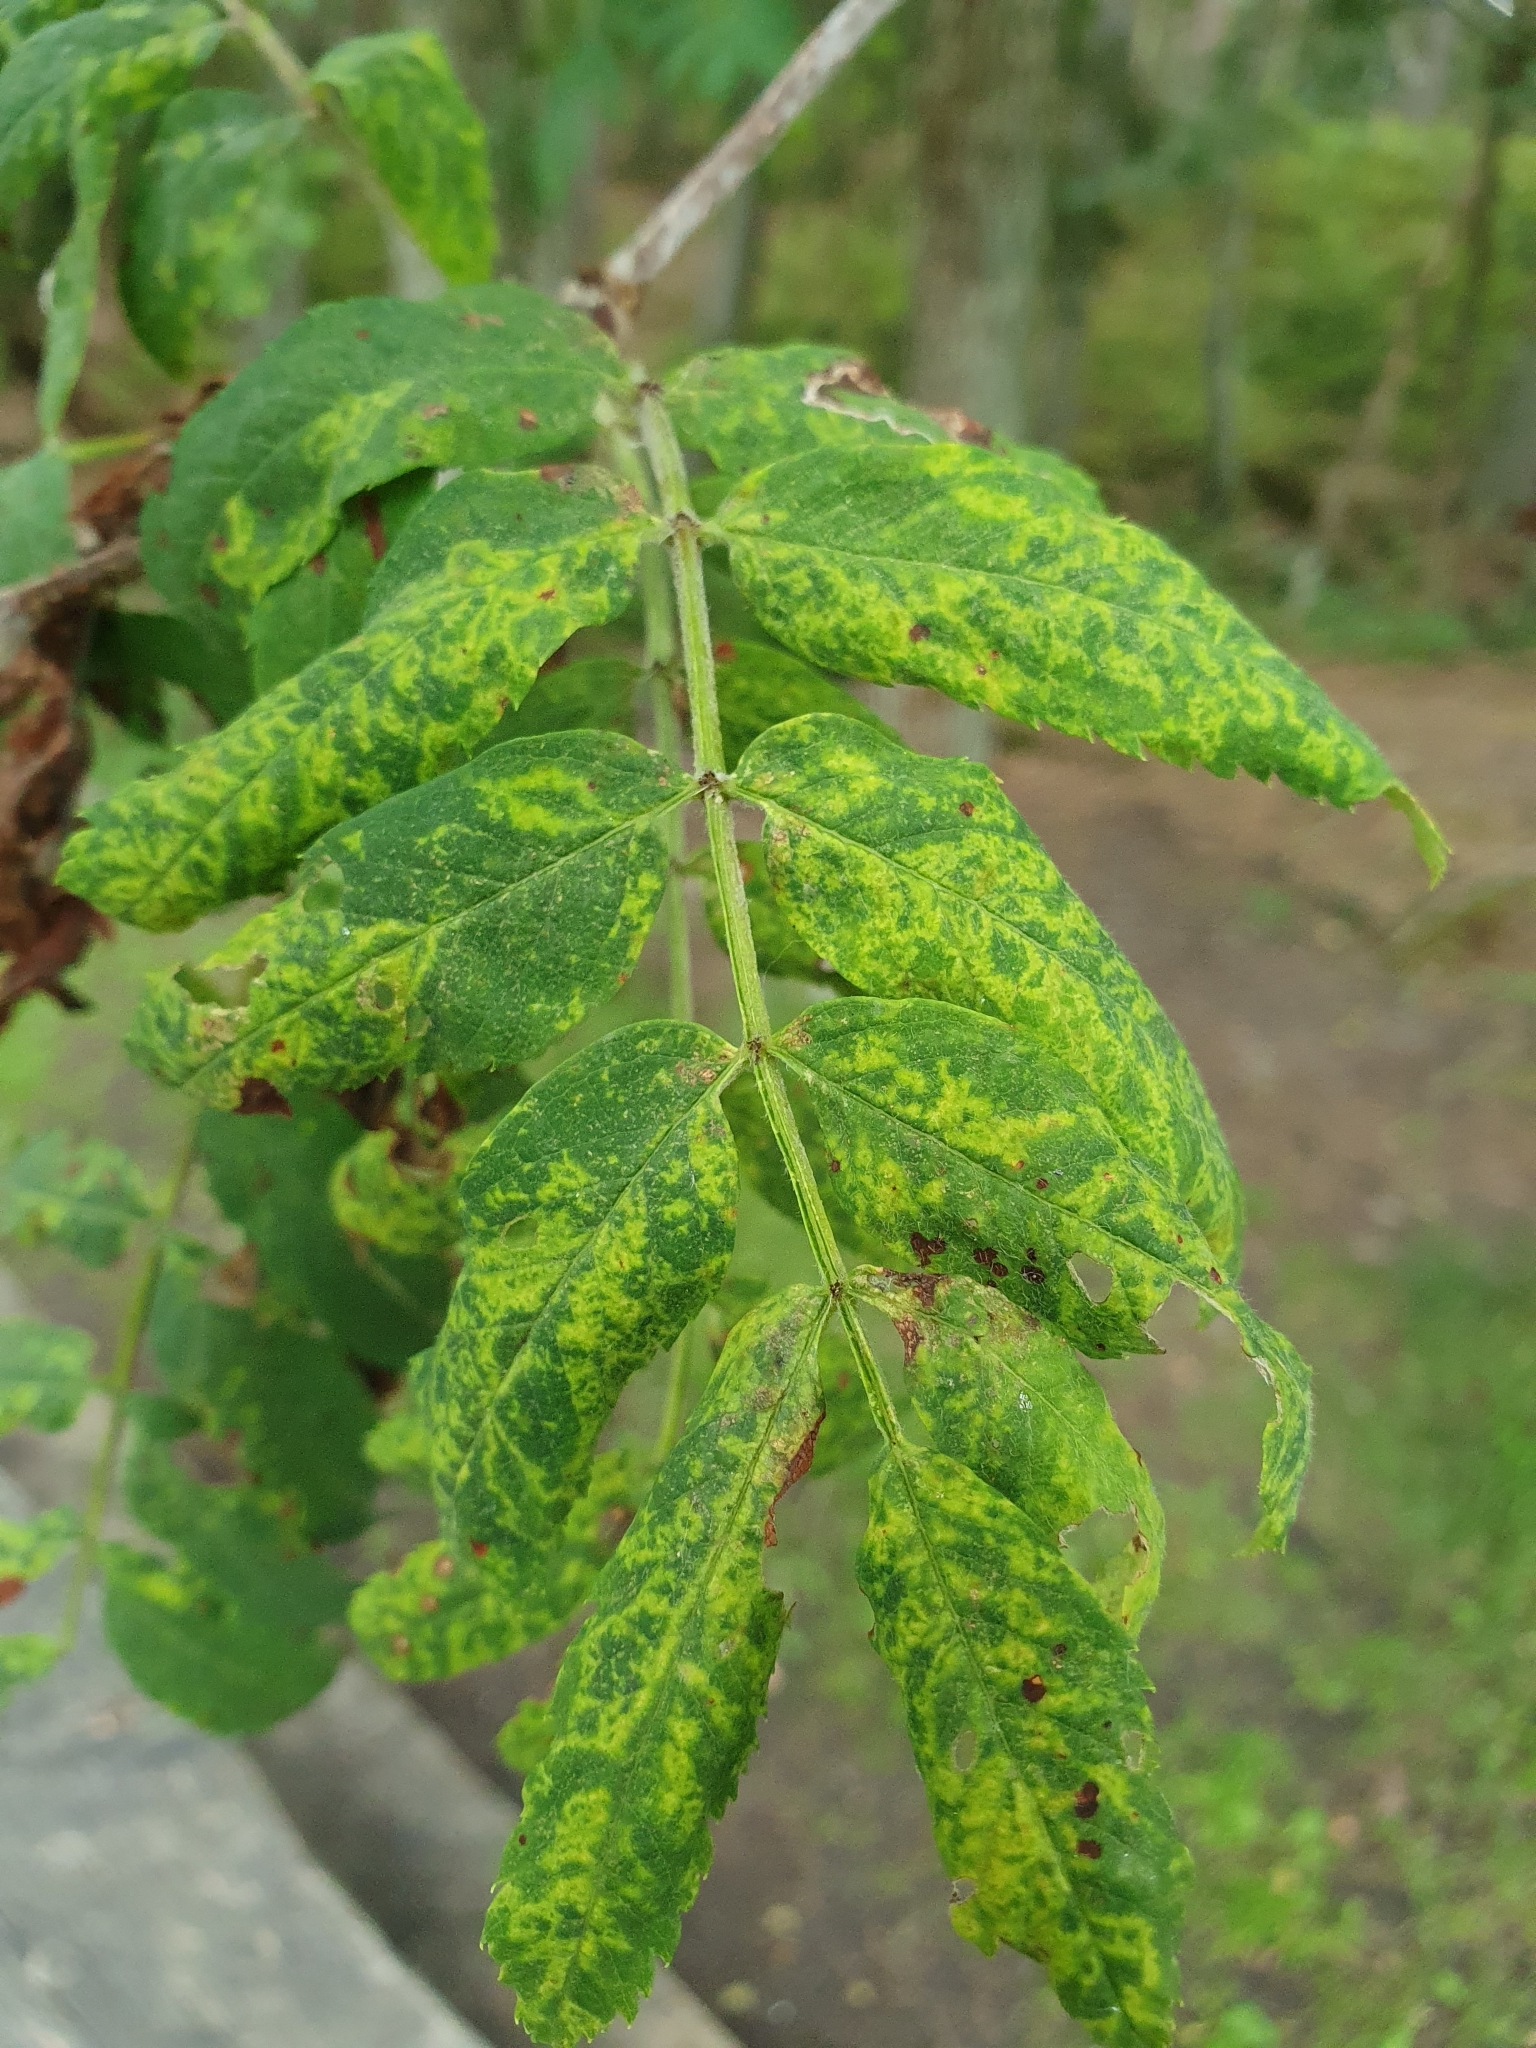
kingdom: Viruses
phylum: Negarnaviricota
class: Ellioviricetes
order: Bunyavirales
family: Fimoviridae
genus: Emaravirus
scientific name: Emaravirus sorbi
